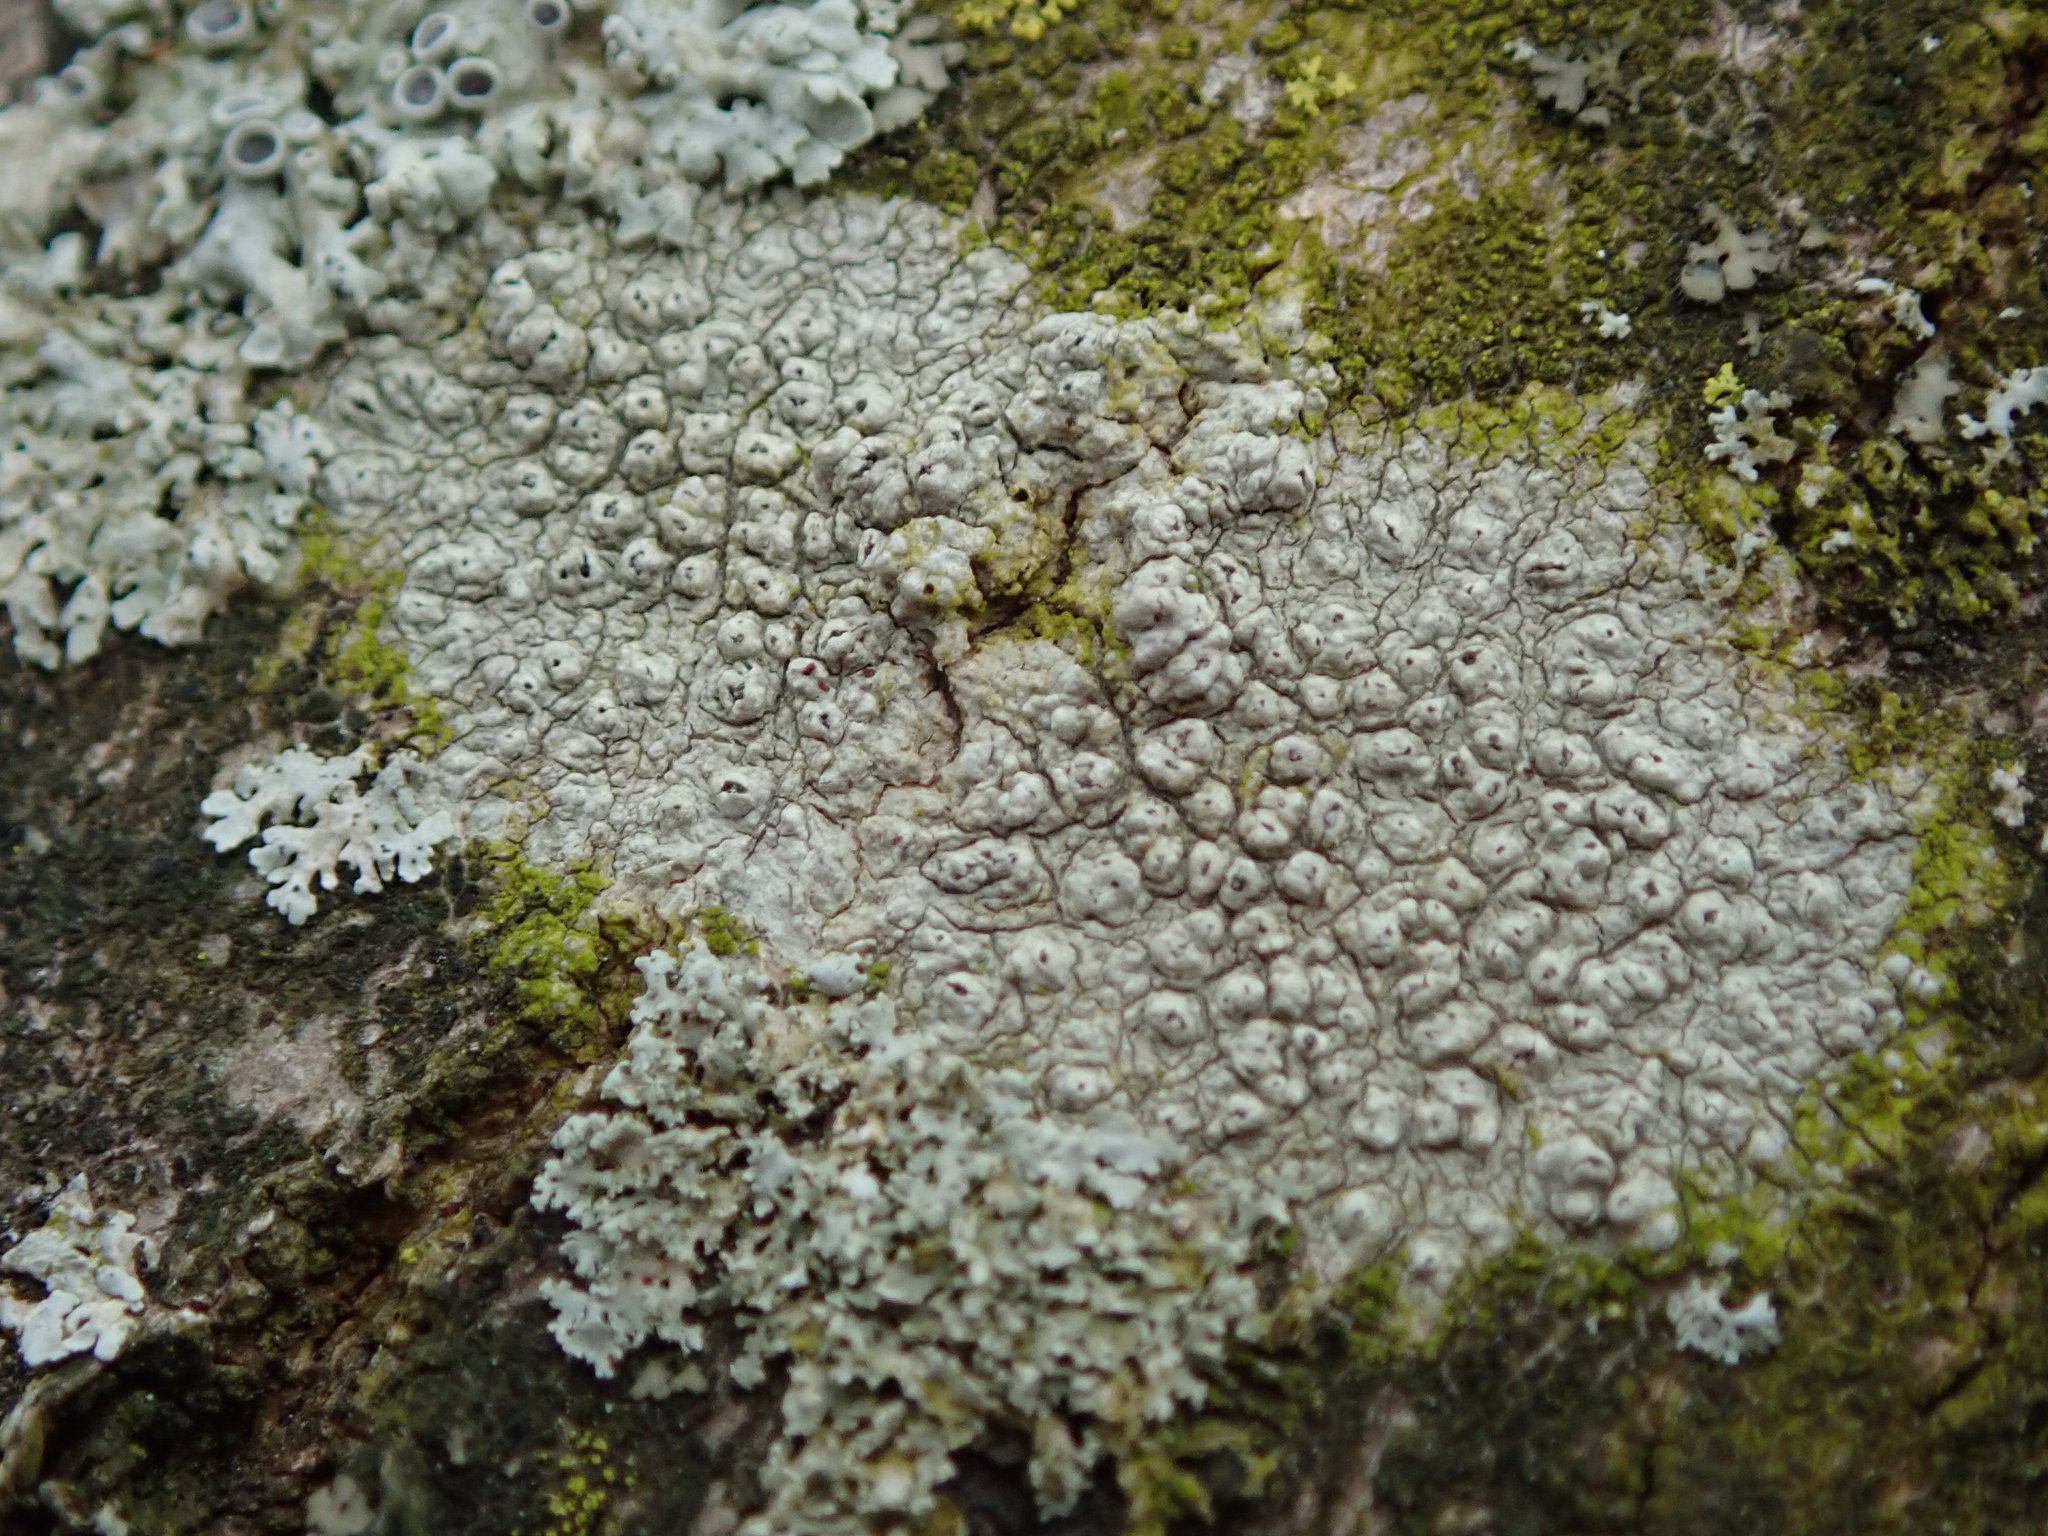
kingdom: Fungi
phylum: Ascomycota
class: Lecanoromycetes
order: Pertusariales
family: Pertusariaceae
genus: Pertusaria
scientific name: Pertusaria pustulata
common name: Branch bumps
